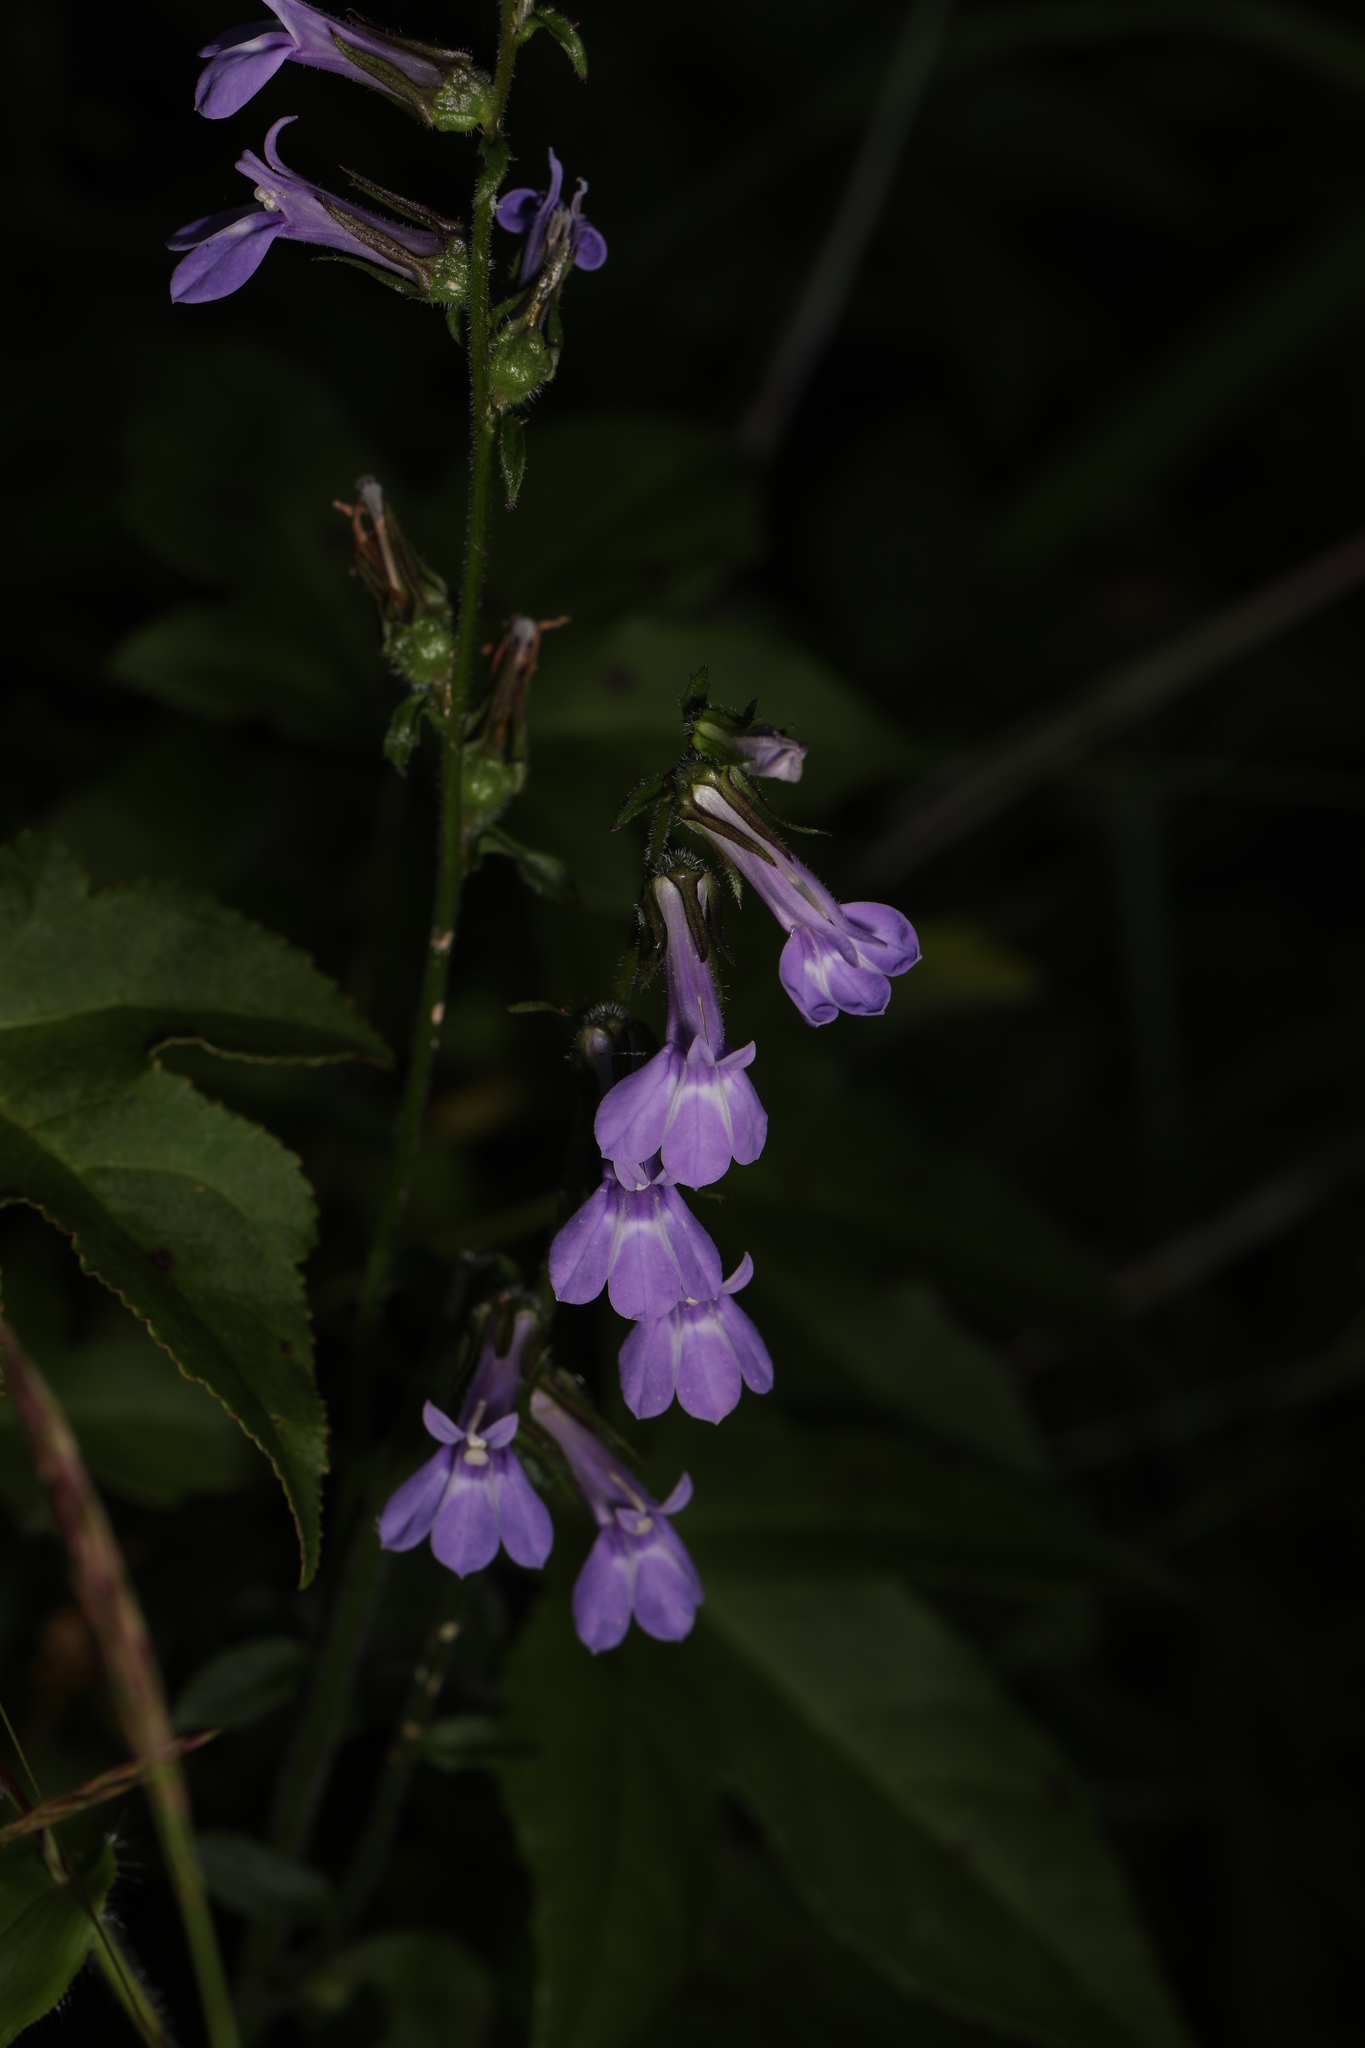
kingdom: Plantae
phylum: Tracheophyta
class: Magnoliopsida
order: Asterales
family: Campanulaceae
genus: Lobelia
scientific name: Lobelia puberula
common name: Purple dewdrop
